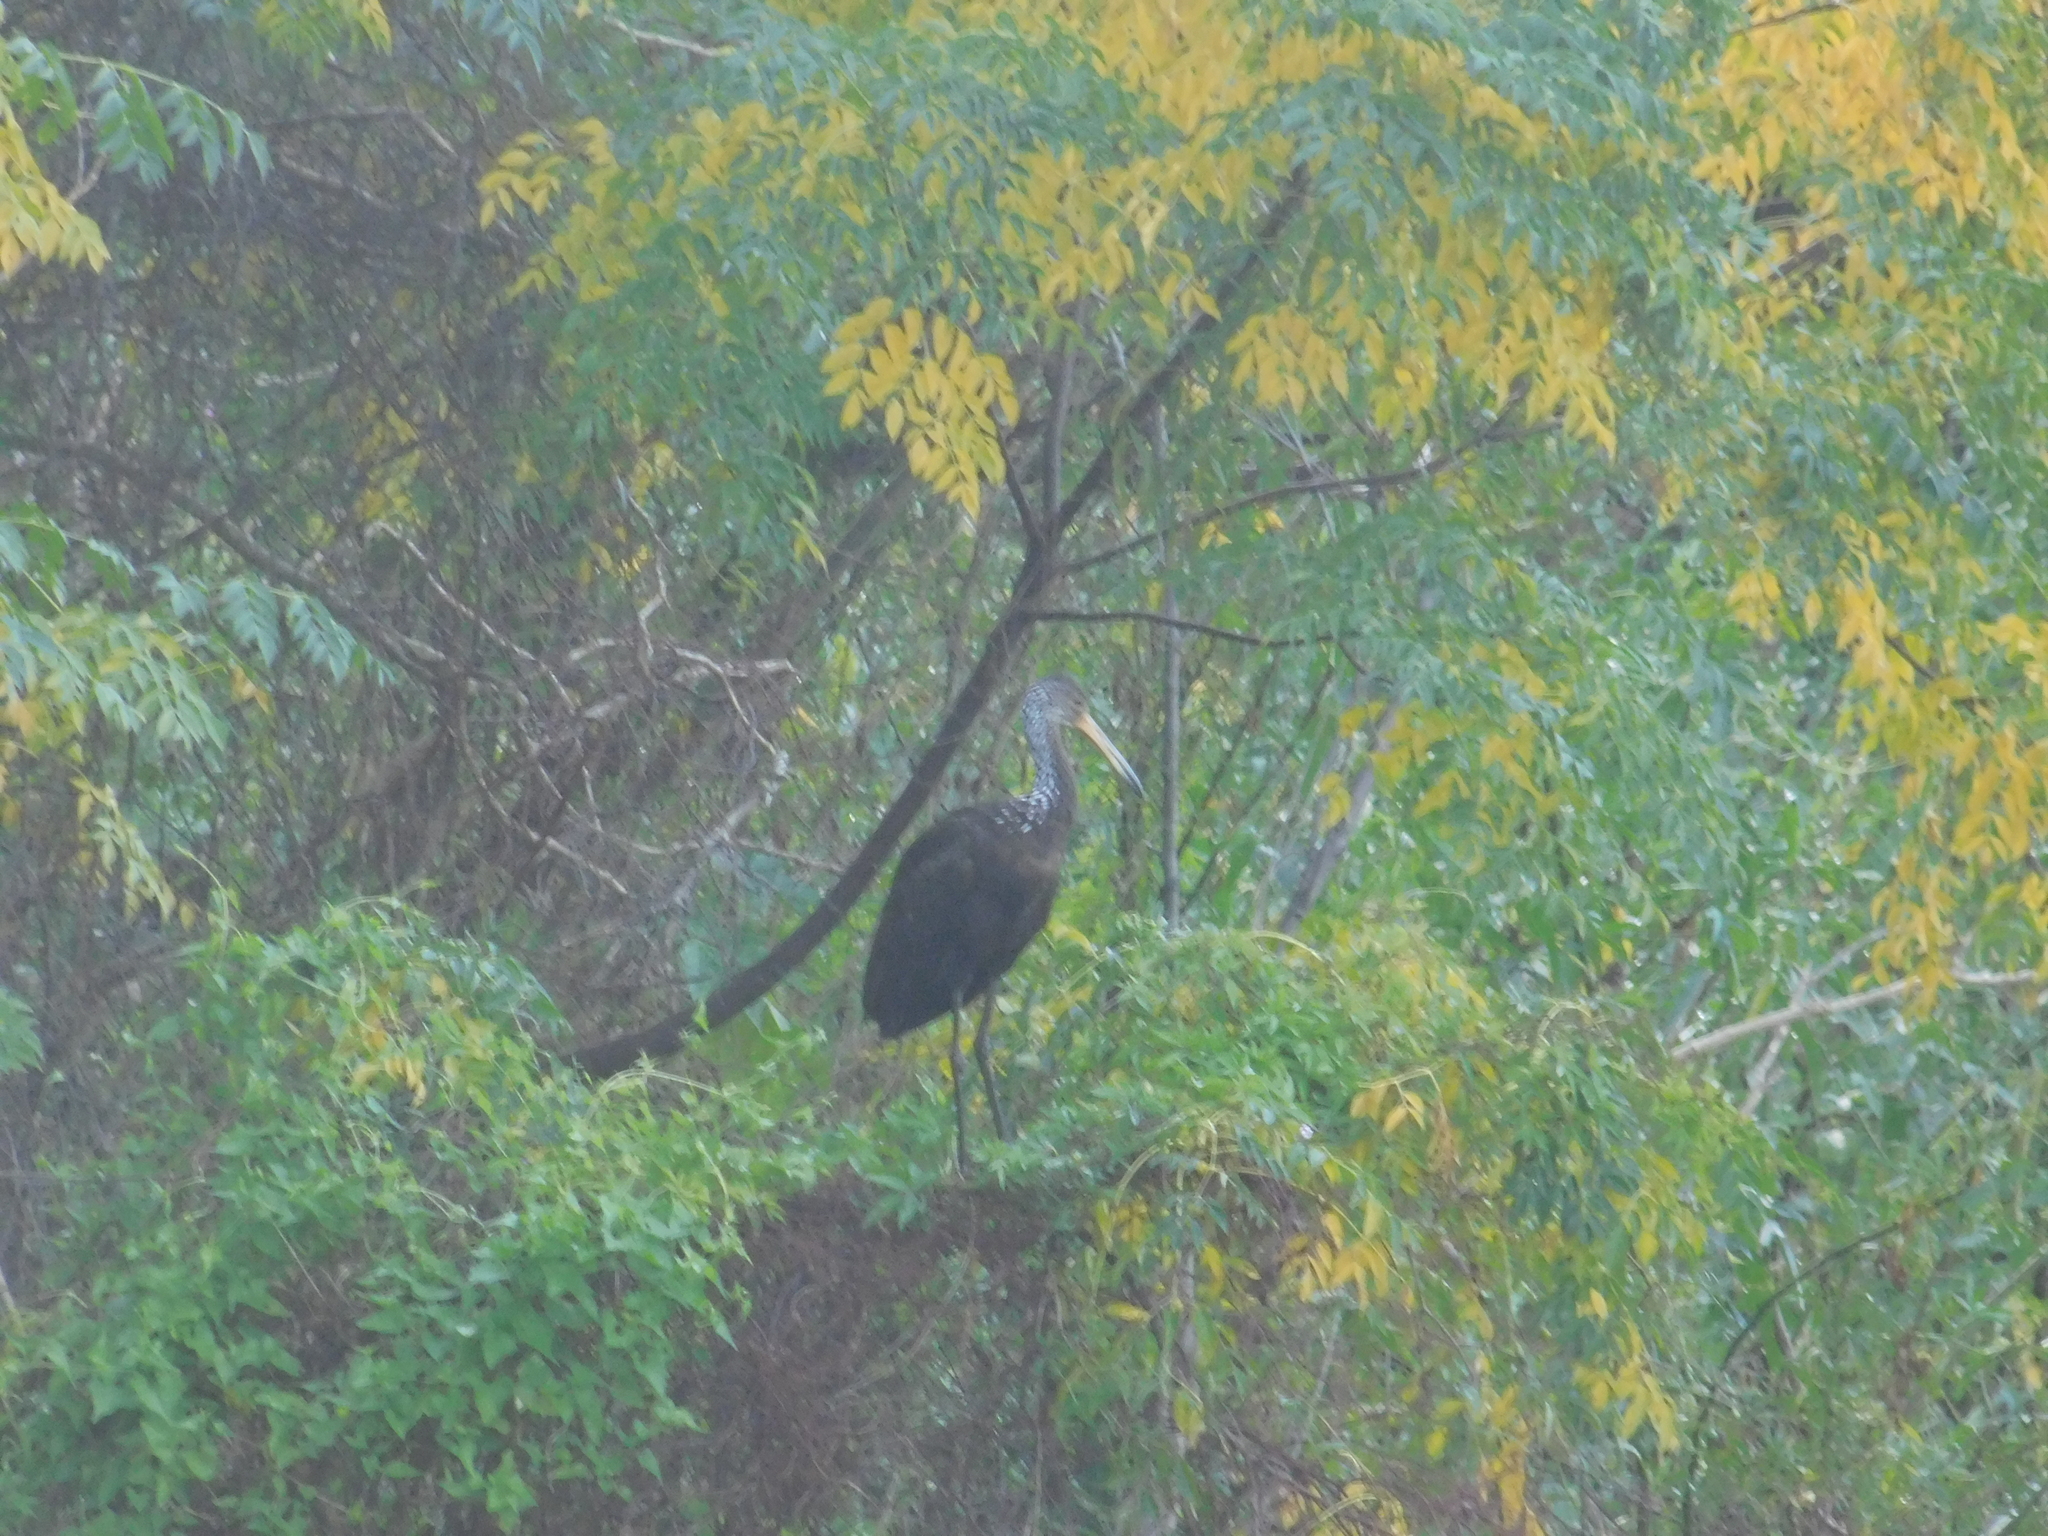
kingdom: Animalia
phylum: Chordata
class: Aves
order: Gruiformes
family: Aramidae
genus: Aramus
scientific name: Aramus guarauna
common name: Limpkin
